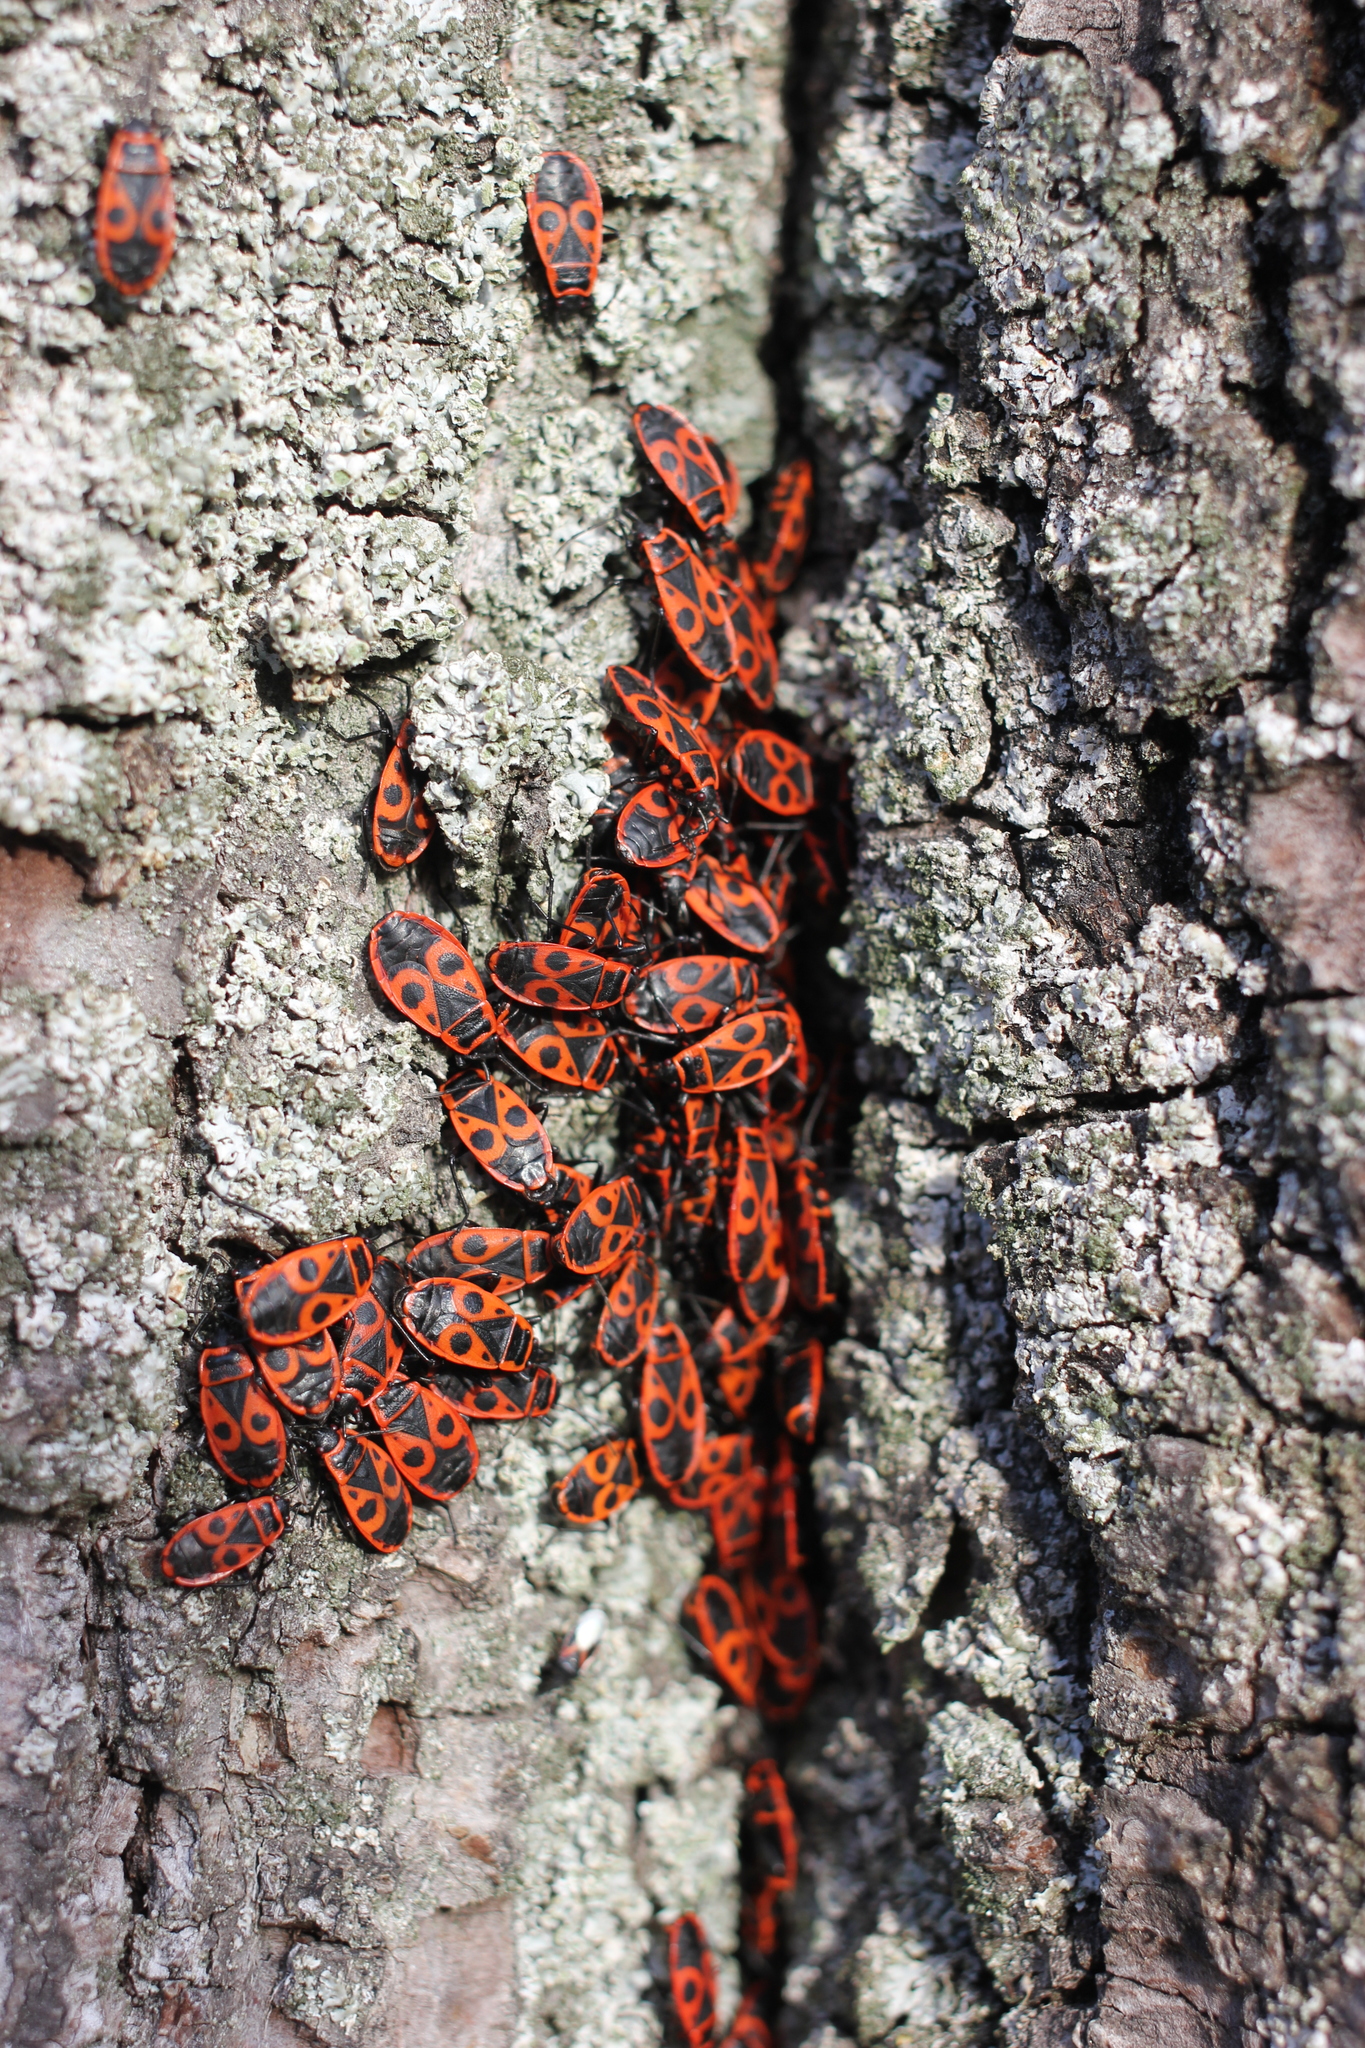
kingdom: Animalia
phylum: Arthropoda
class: Insecta
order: Hemiptera
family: Pyrrhocoridae
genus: Pyrrhocoris
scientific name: Pyrrhocoris apterus
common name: Firebug
